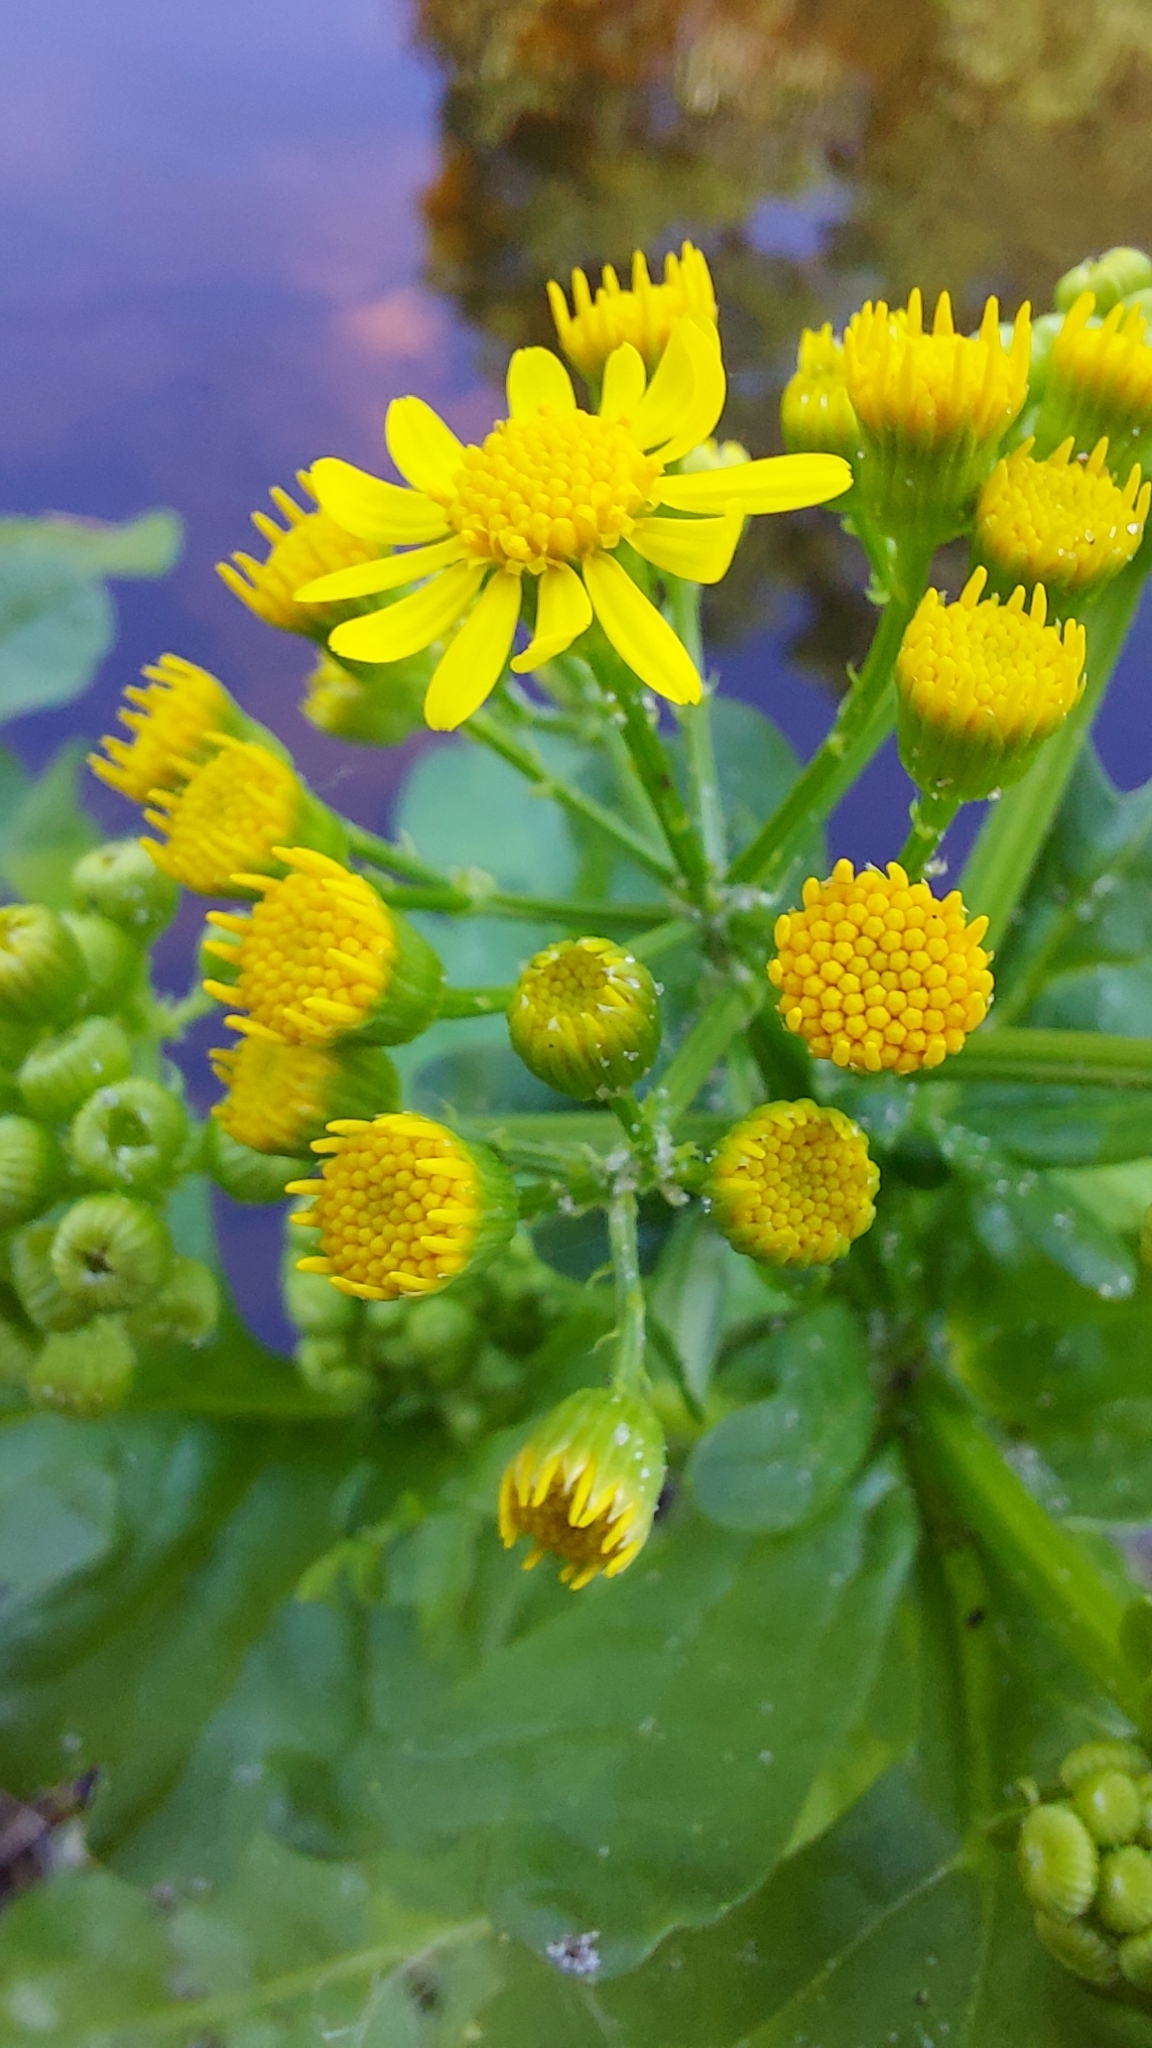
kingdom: Plantae
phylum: Tracheophyta
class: Magnoliopsida
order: Asterales
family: Asteraceae
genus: Packera
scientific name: Packera glabella
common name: Butterweed
